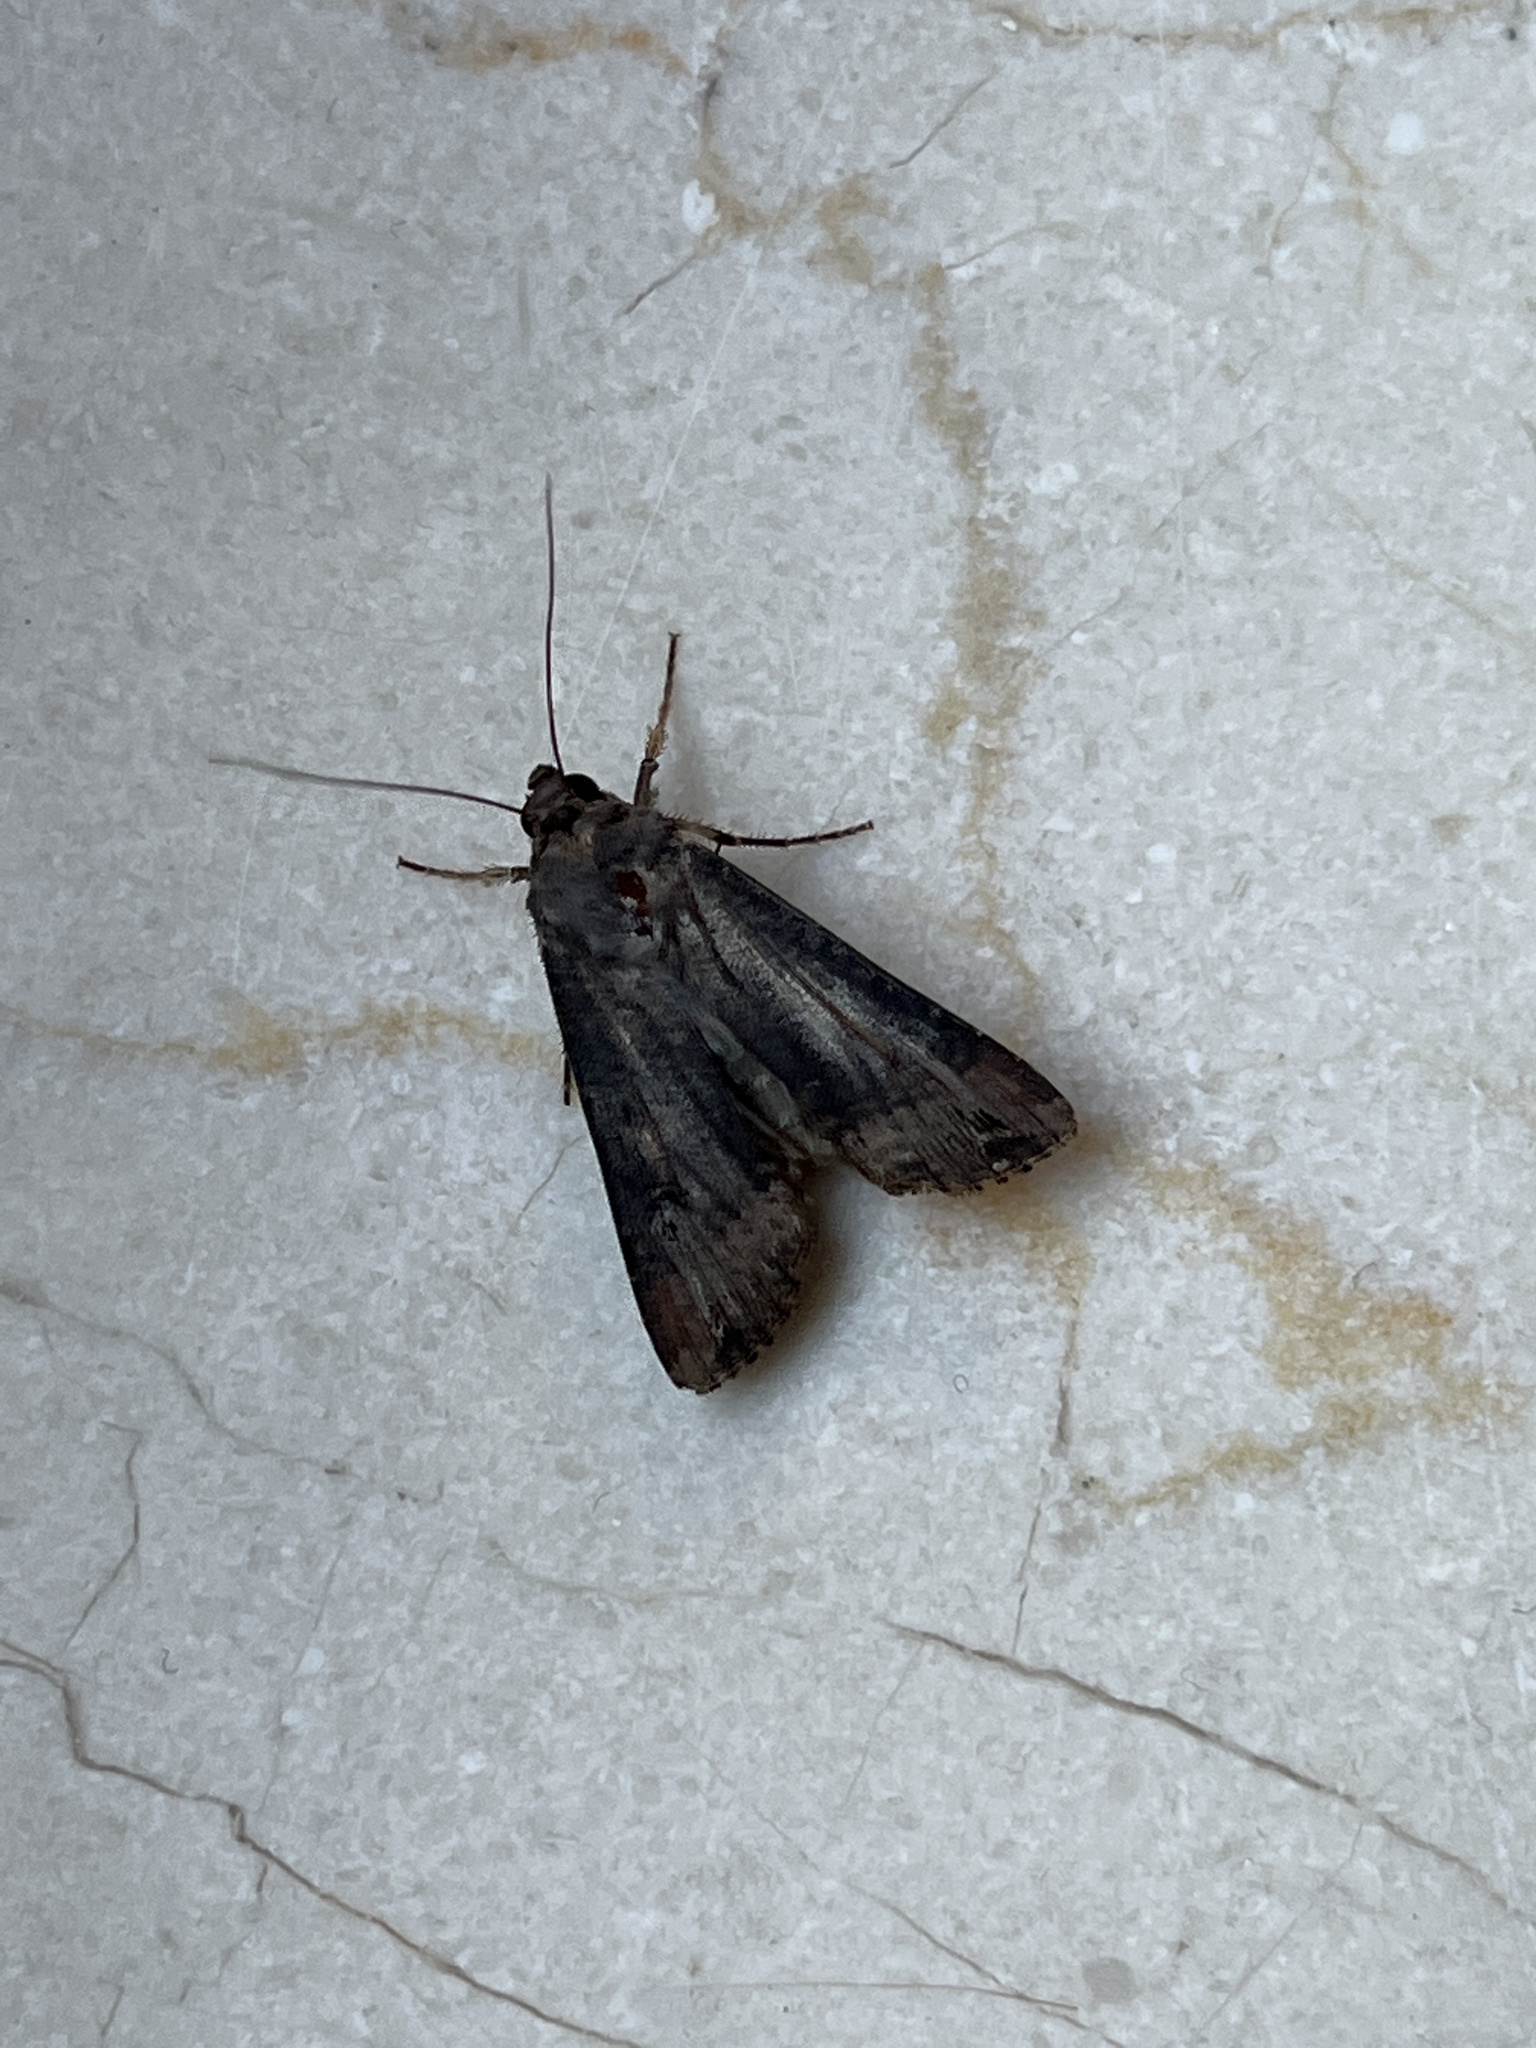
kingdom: Animalia
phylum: Arthropoda
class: Insecta
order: Lepidoptera
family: Noctuidae
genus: Agrotis
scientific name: Agrotis ipsilon
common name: Dark sword-grass
